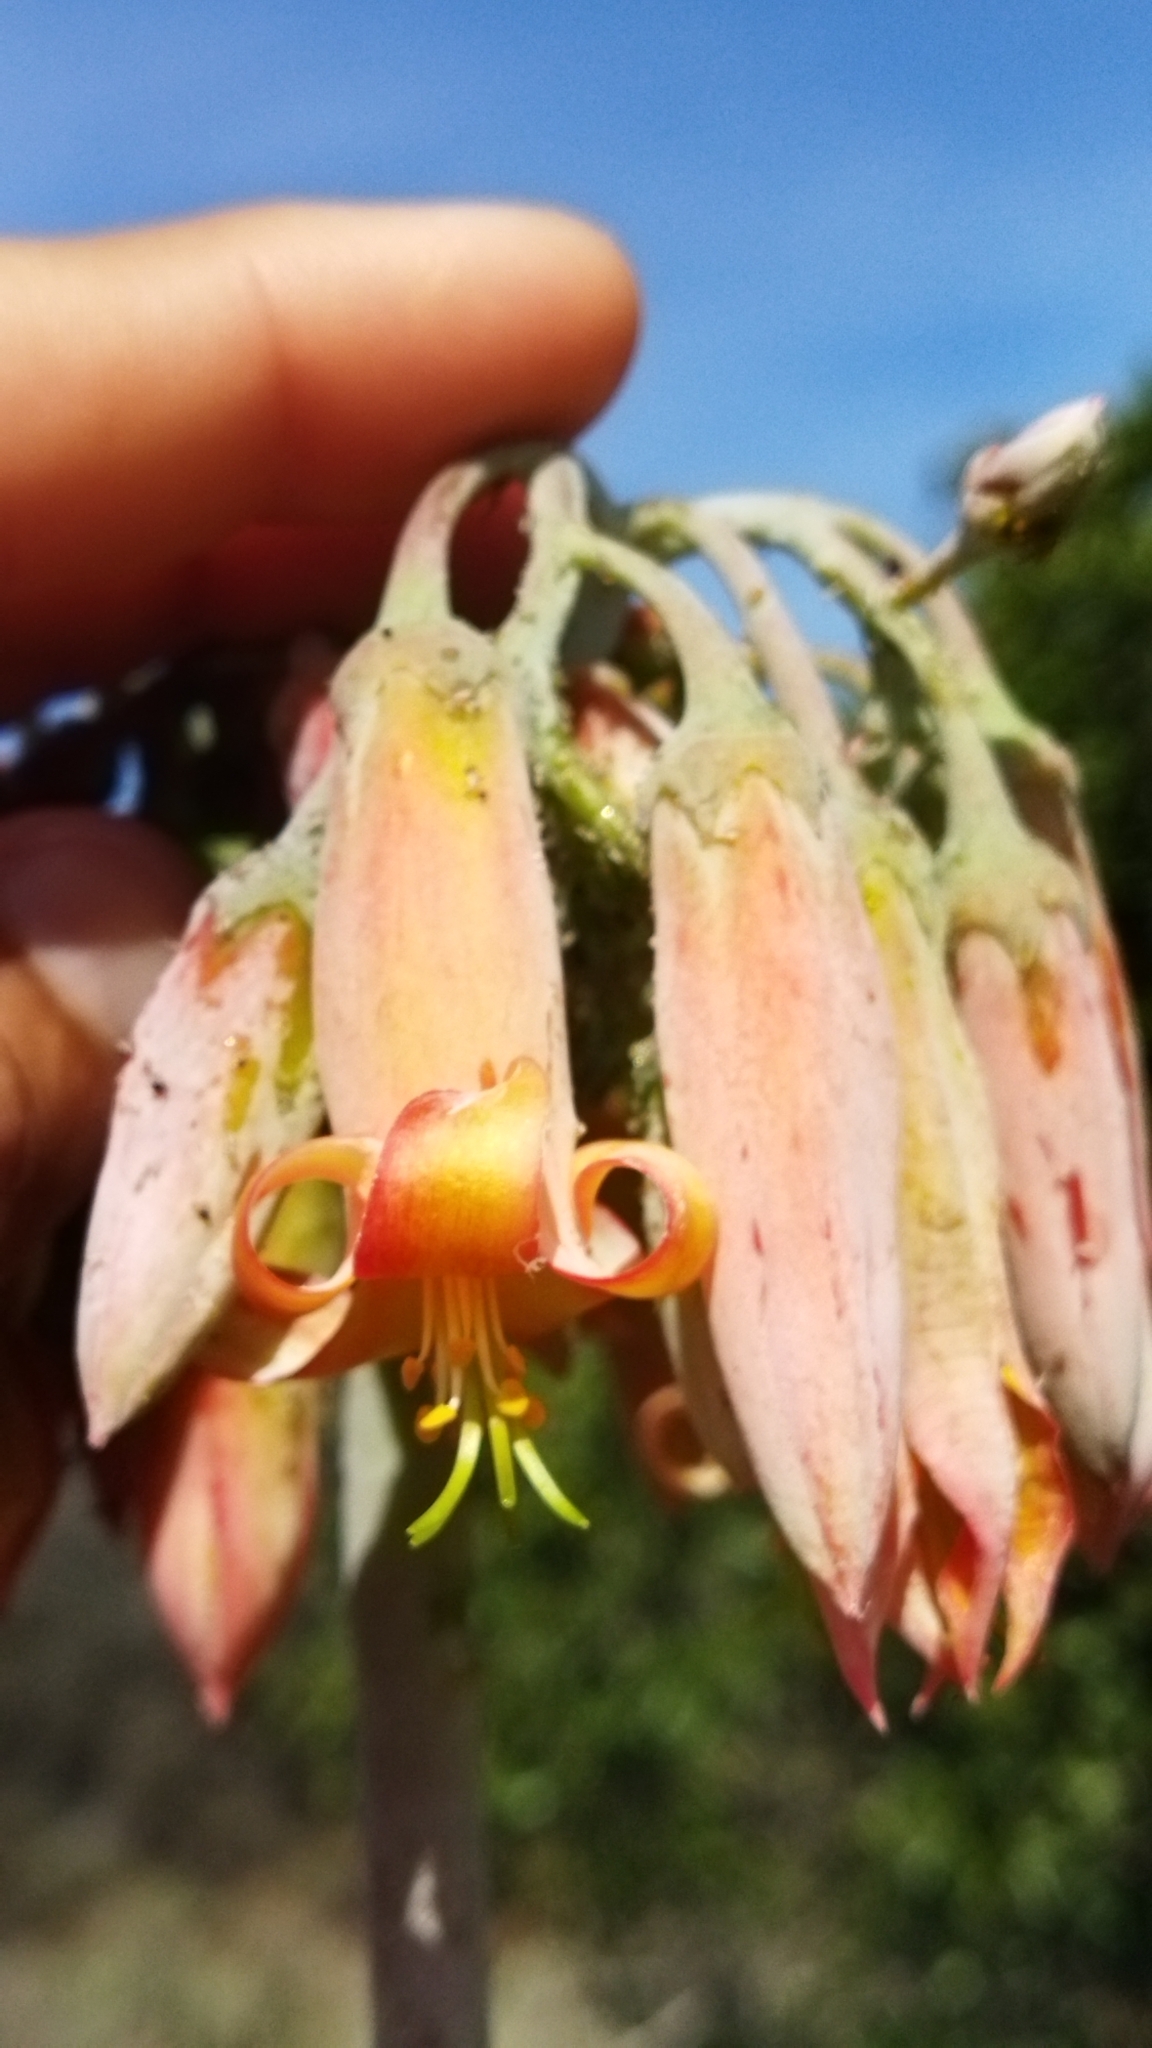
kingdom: Plantae
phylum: Tracheophyta
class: Magnoliopsida
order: Saxifragales
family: Crassulaceae
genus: Cotyledon
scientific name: Cotyledon orbiculata
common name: Pig's ear
